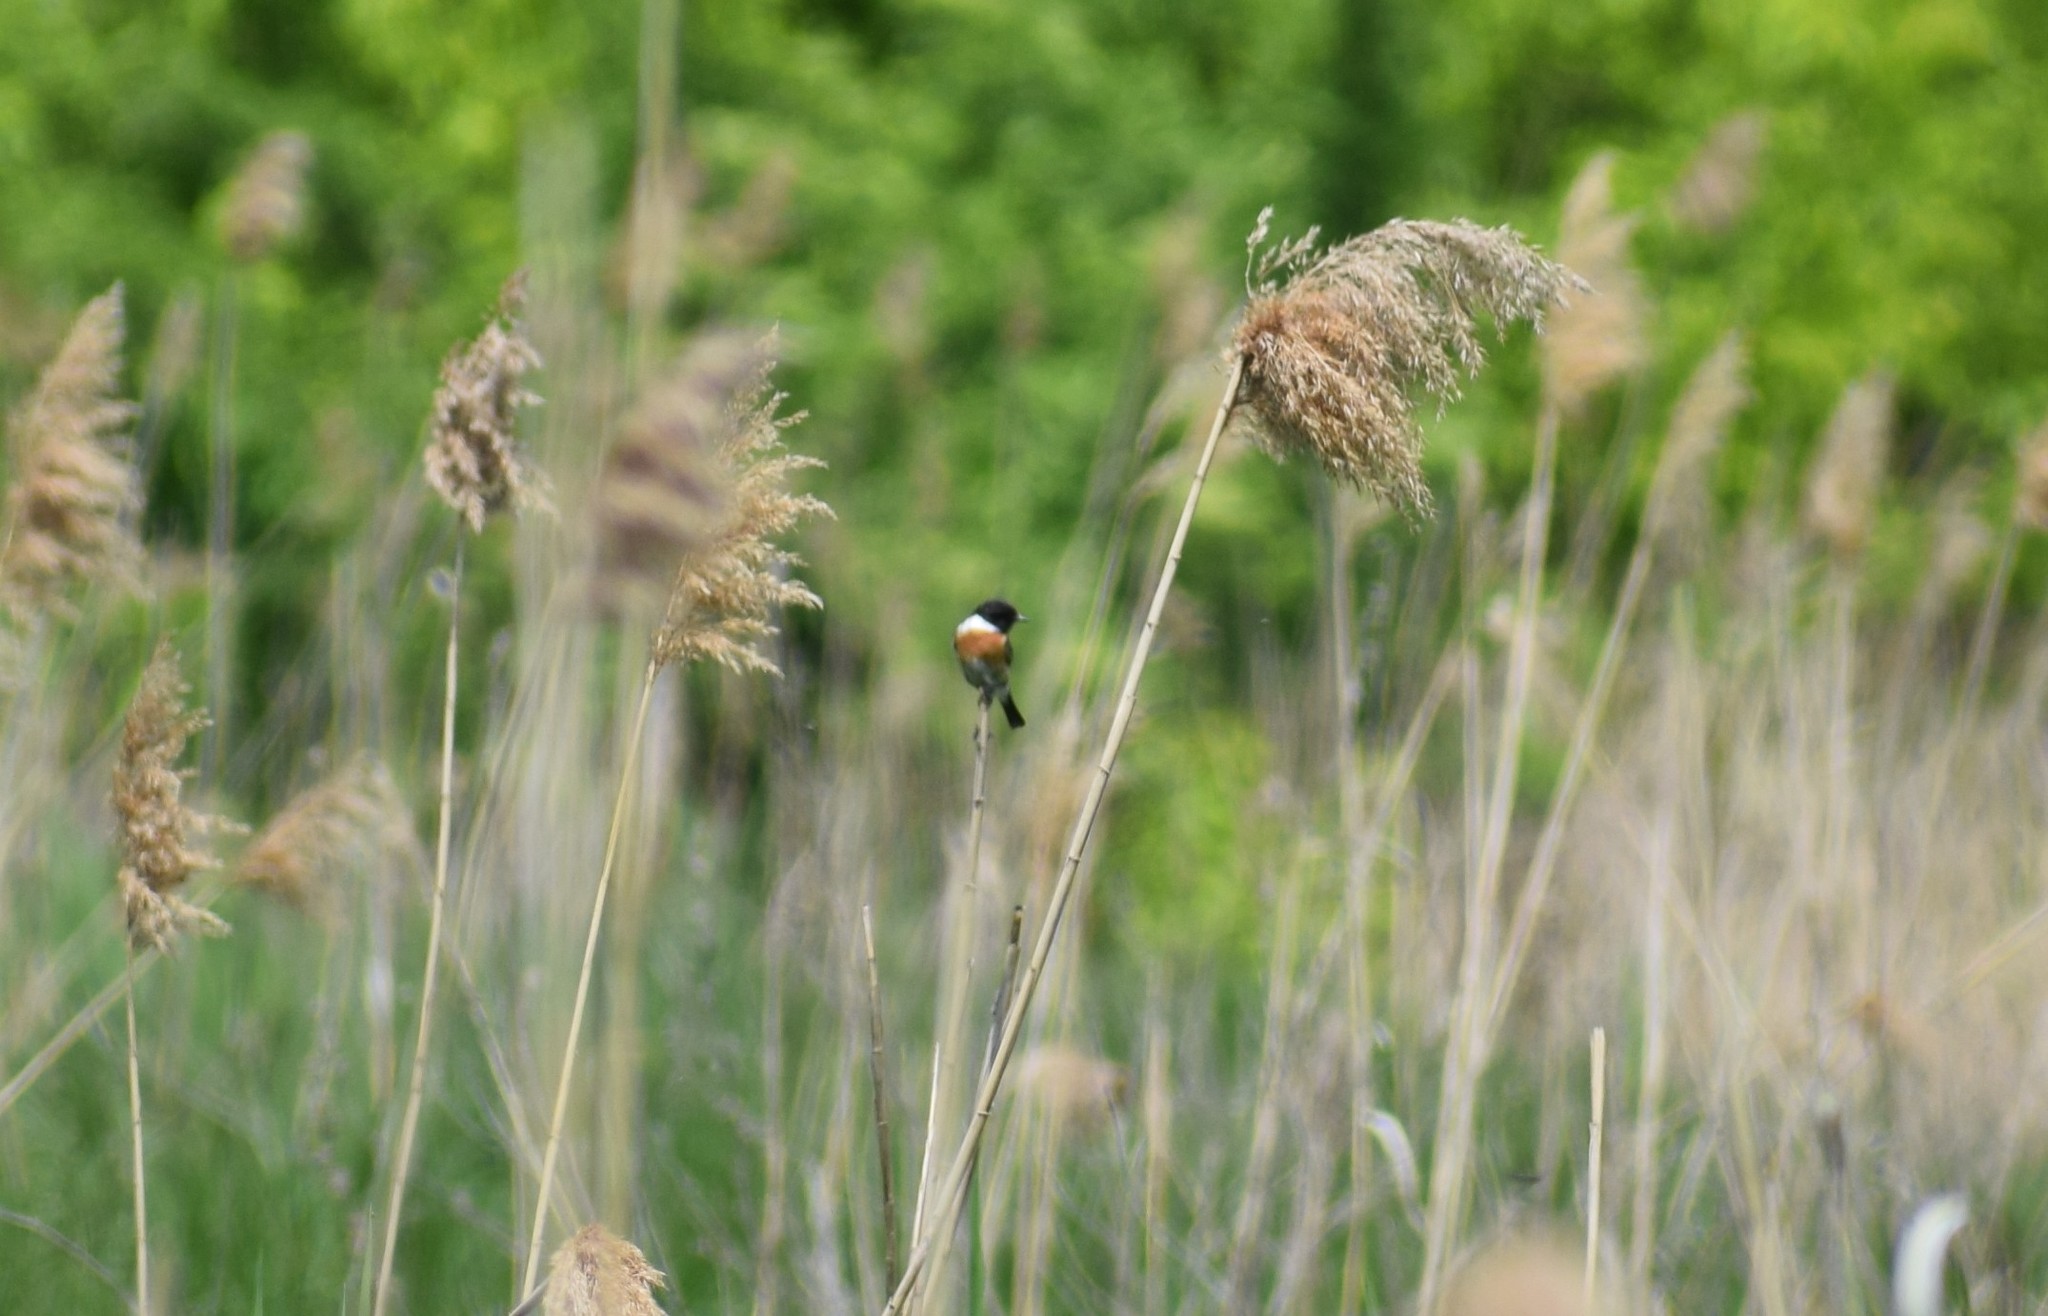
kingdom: Animalia
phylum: Chordata
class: Aves
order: Passeriformes
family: Muscicapidae
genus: Saxicola
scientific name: Saxicola rubicola
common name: European stonechat
